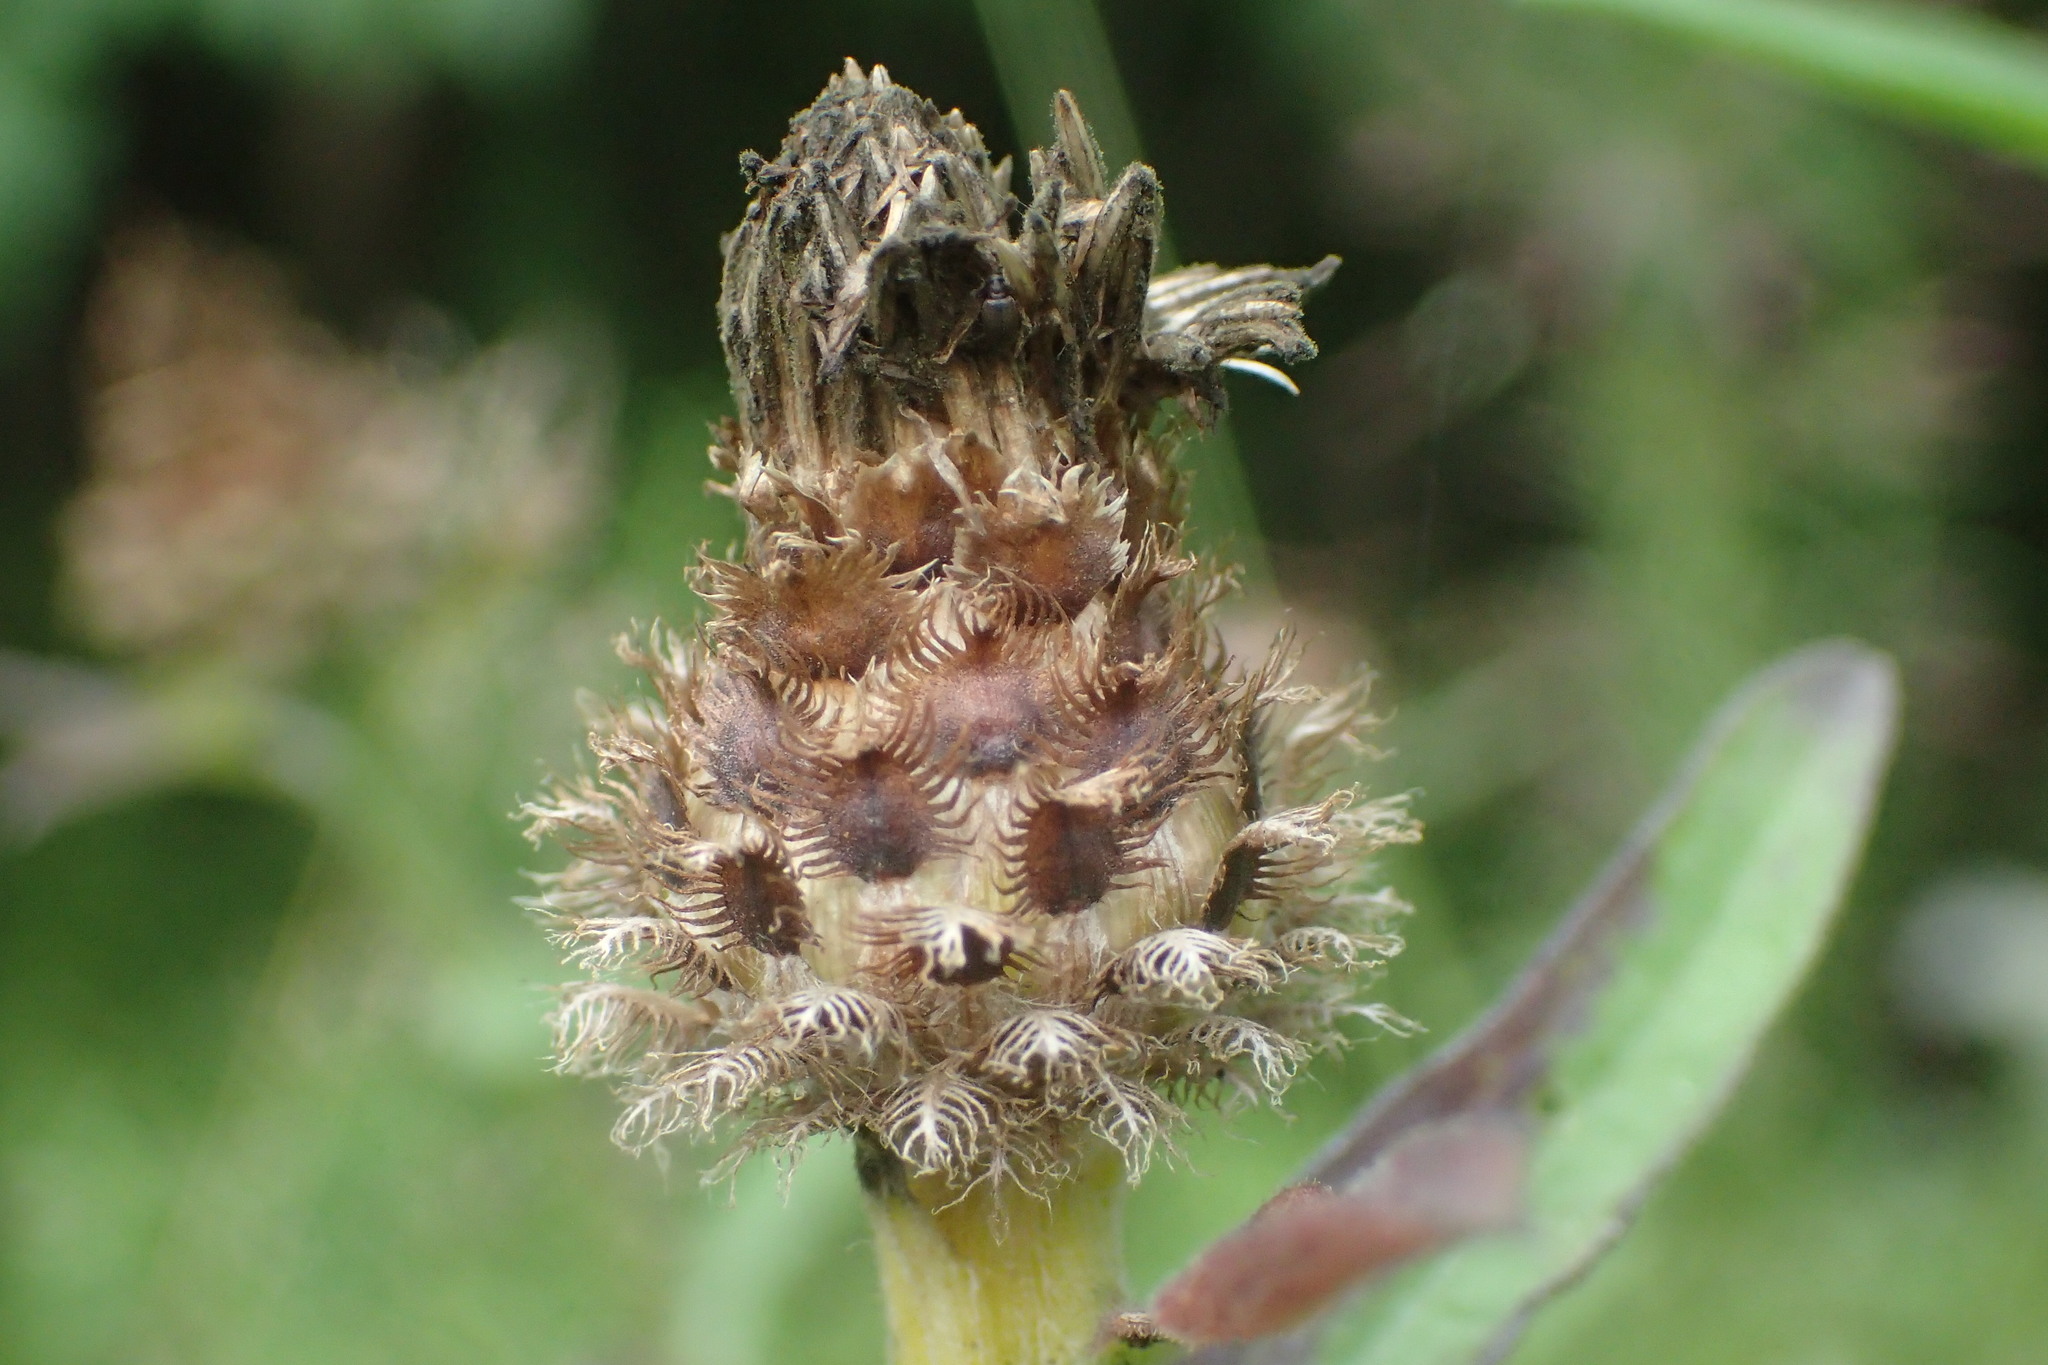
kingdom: Plantae
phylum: Tracheophyta
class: Magnoliopsida
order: Asterales
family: Asteraceae
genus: Centaurea
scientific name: Centaurea nigra
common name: Lesser knapweed
